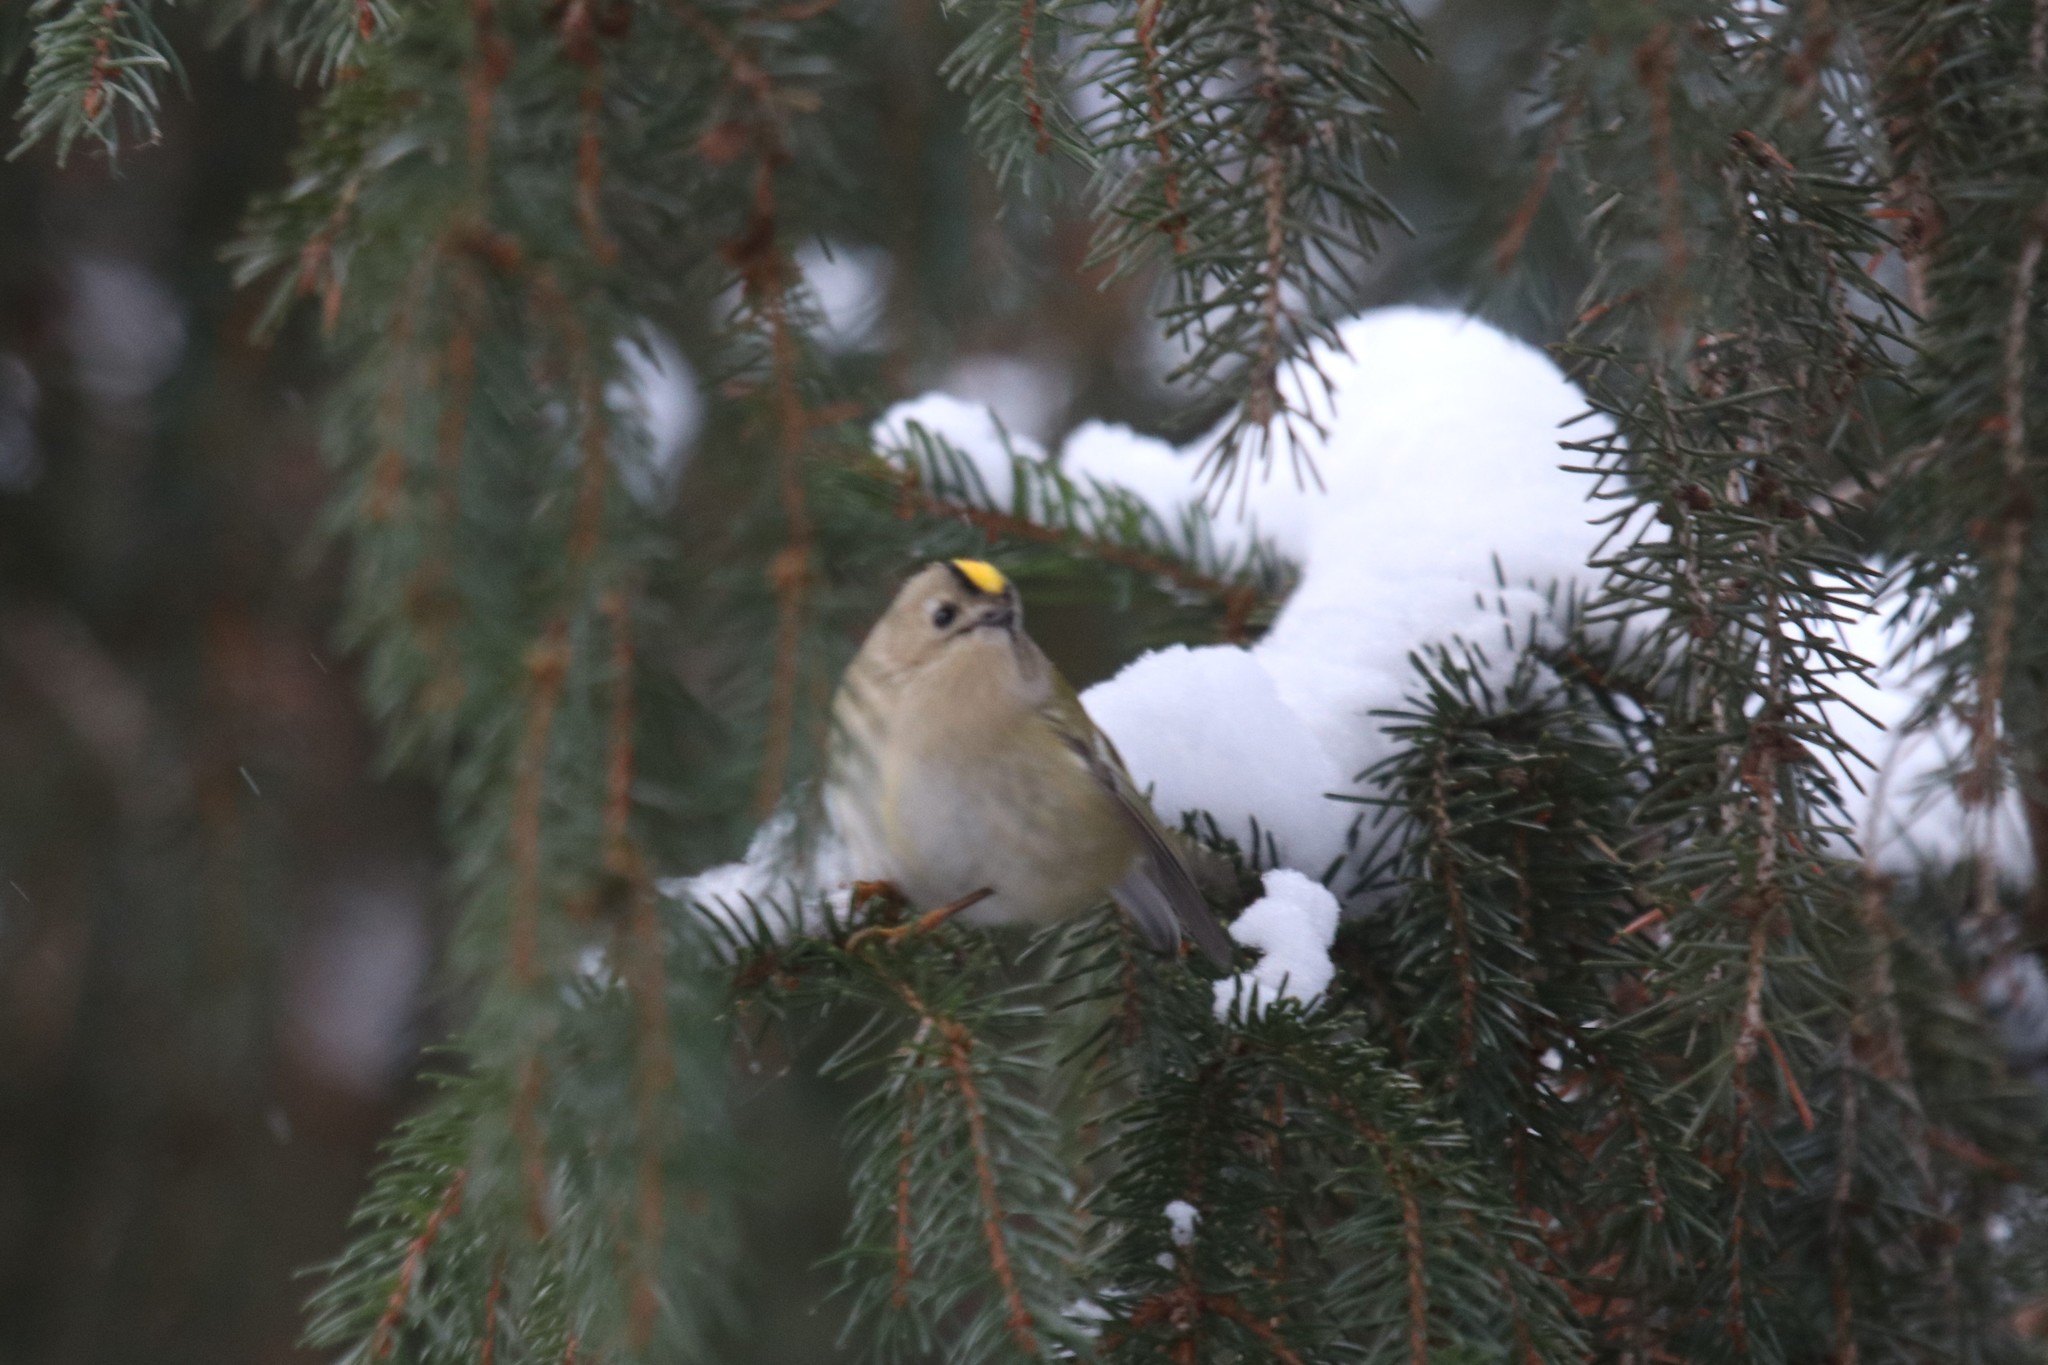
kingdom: Animalia
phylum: Chordata
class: Aves
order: Passeriformes
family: Regulidae
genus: Regulus
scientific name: Regulus regulus
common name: Goldcrest
